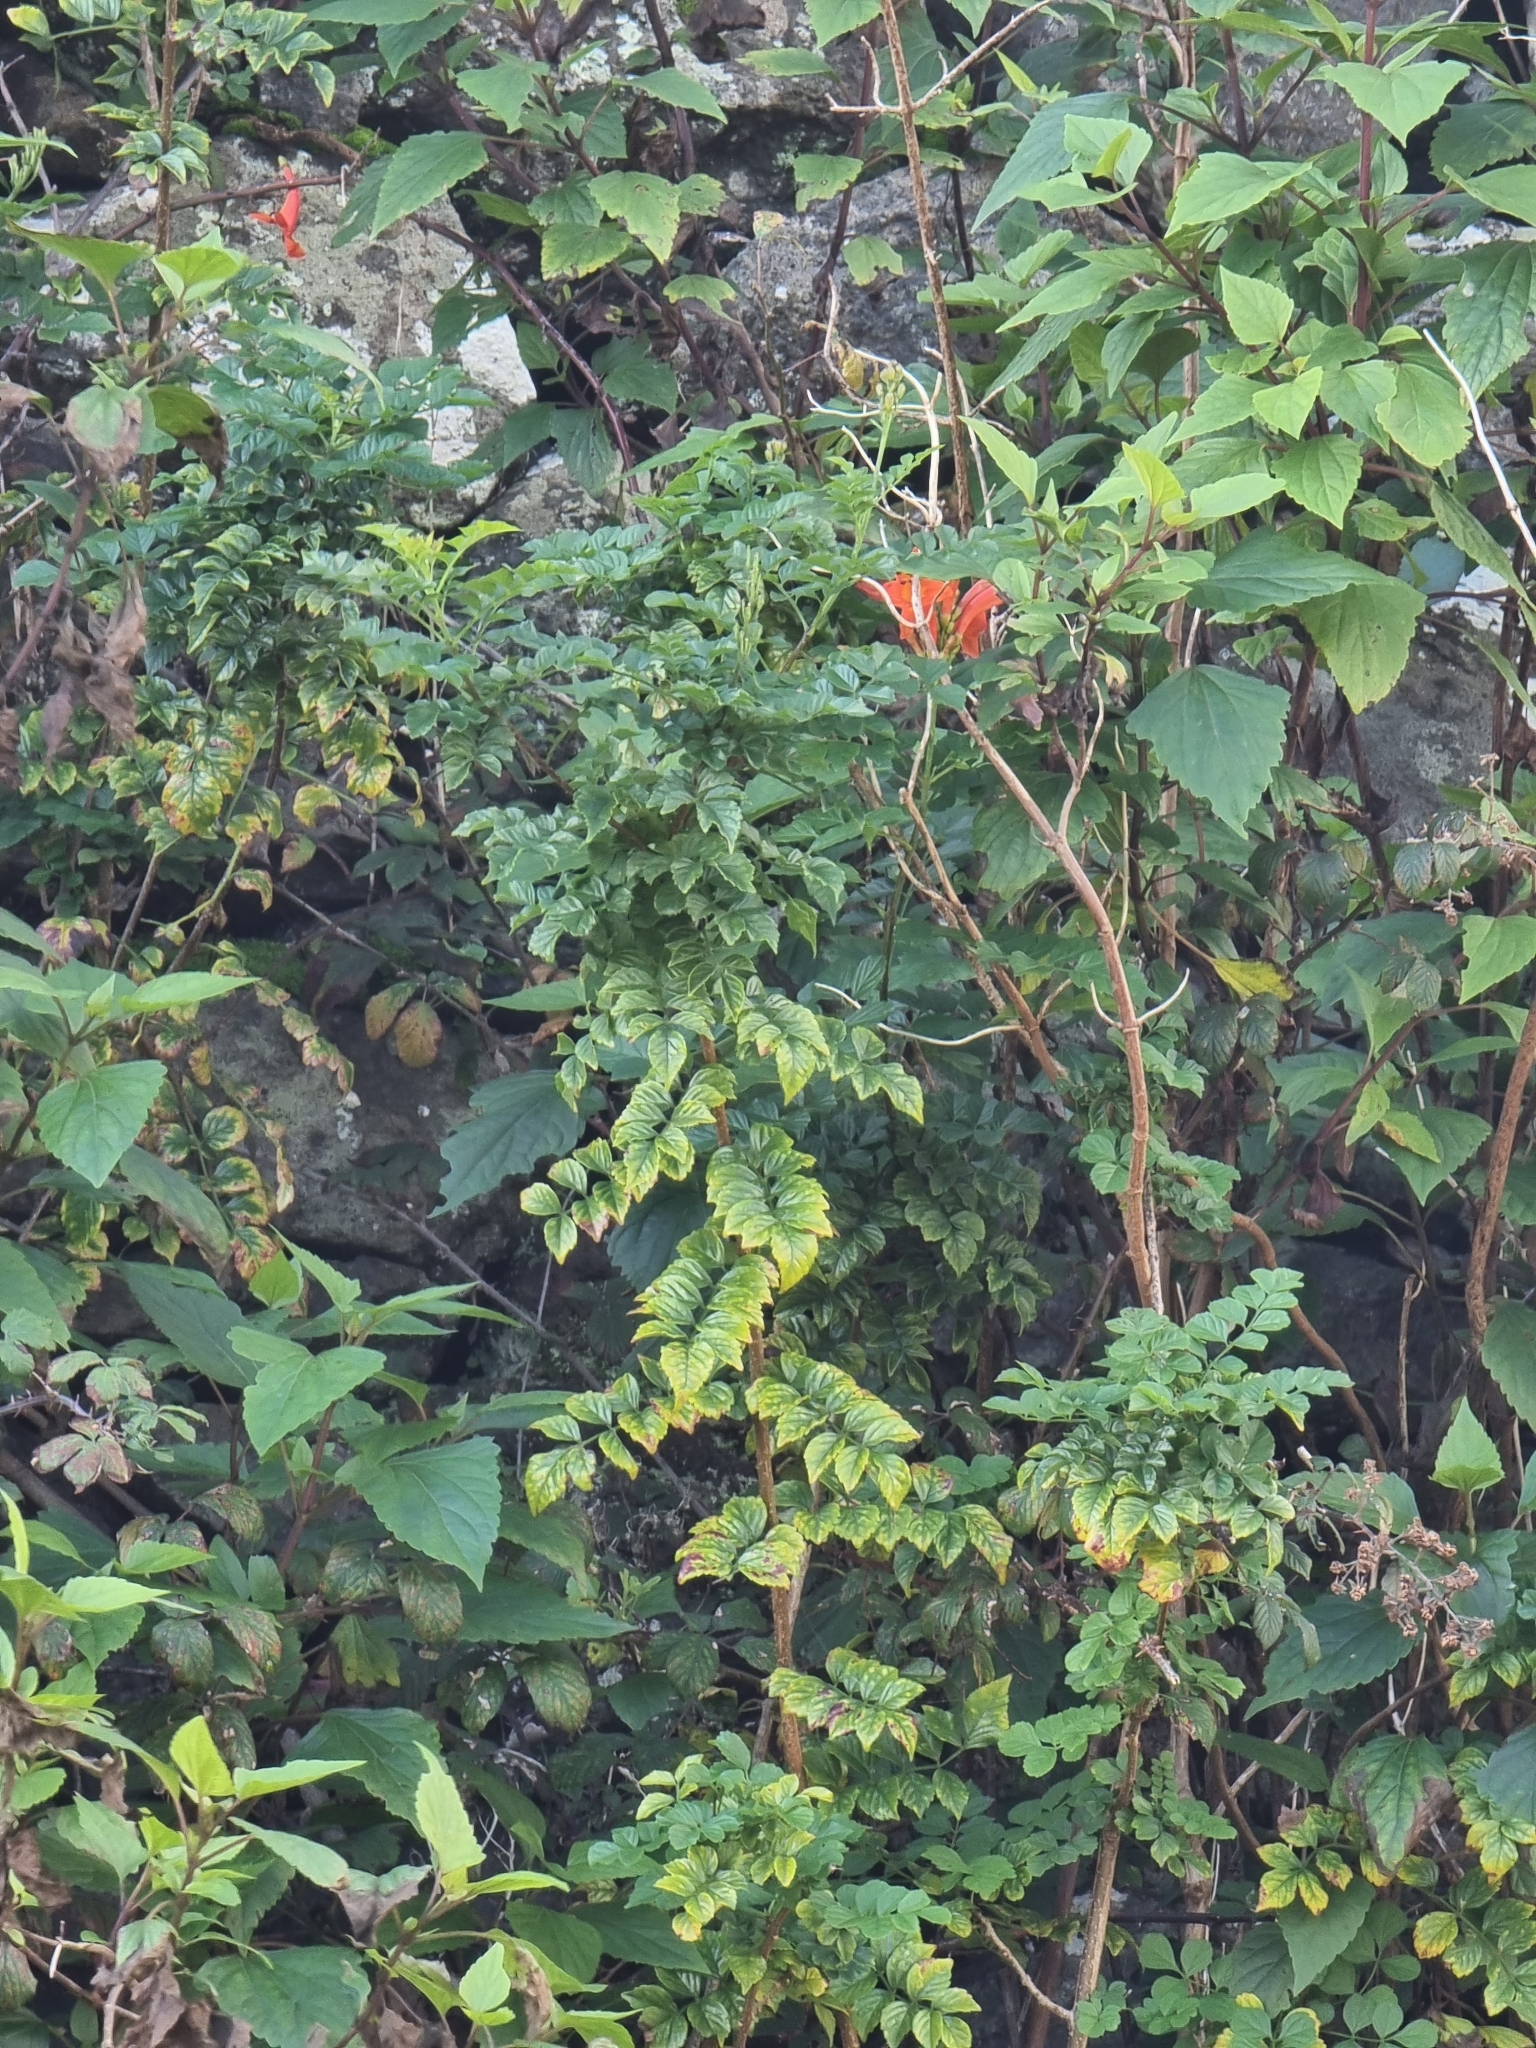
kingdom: Plantae
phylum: Tracheophyta
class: Magnoliopsida
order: Lamiales
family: Bignoniaceae
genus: Tecomaria
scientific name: Tecomaria capensis
